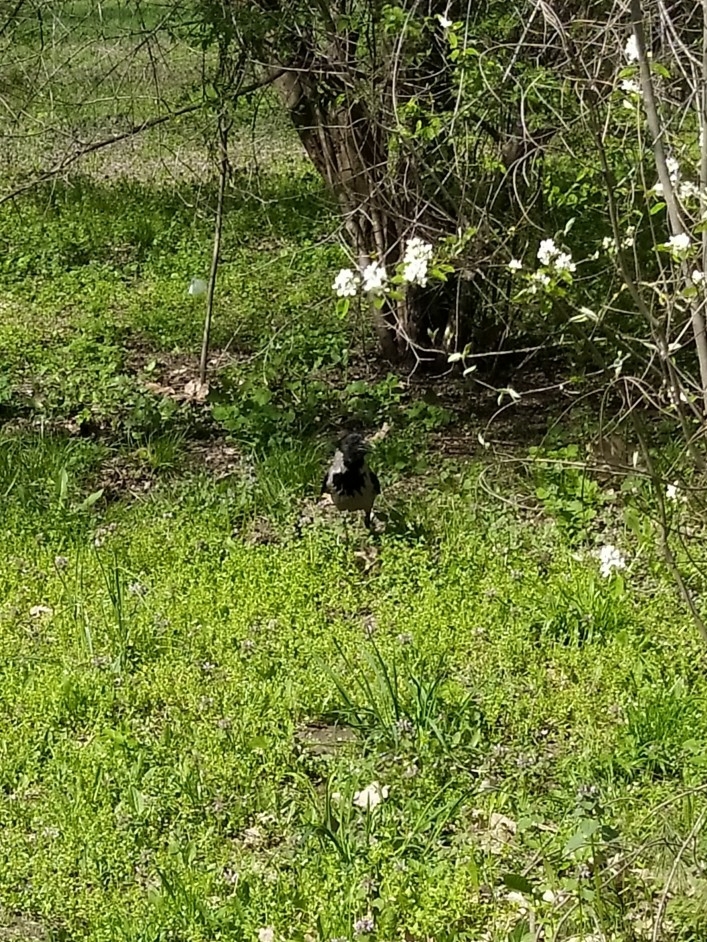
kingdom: Animalia
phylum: Chordata
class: Aves
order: Passeriformes
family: Corvidae
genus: Corvus
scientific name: Corvus cornix
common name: Hooded crow
